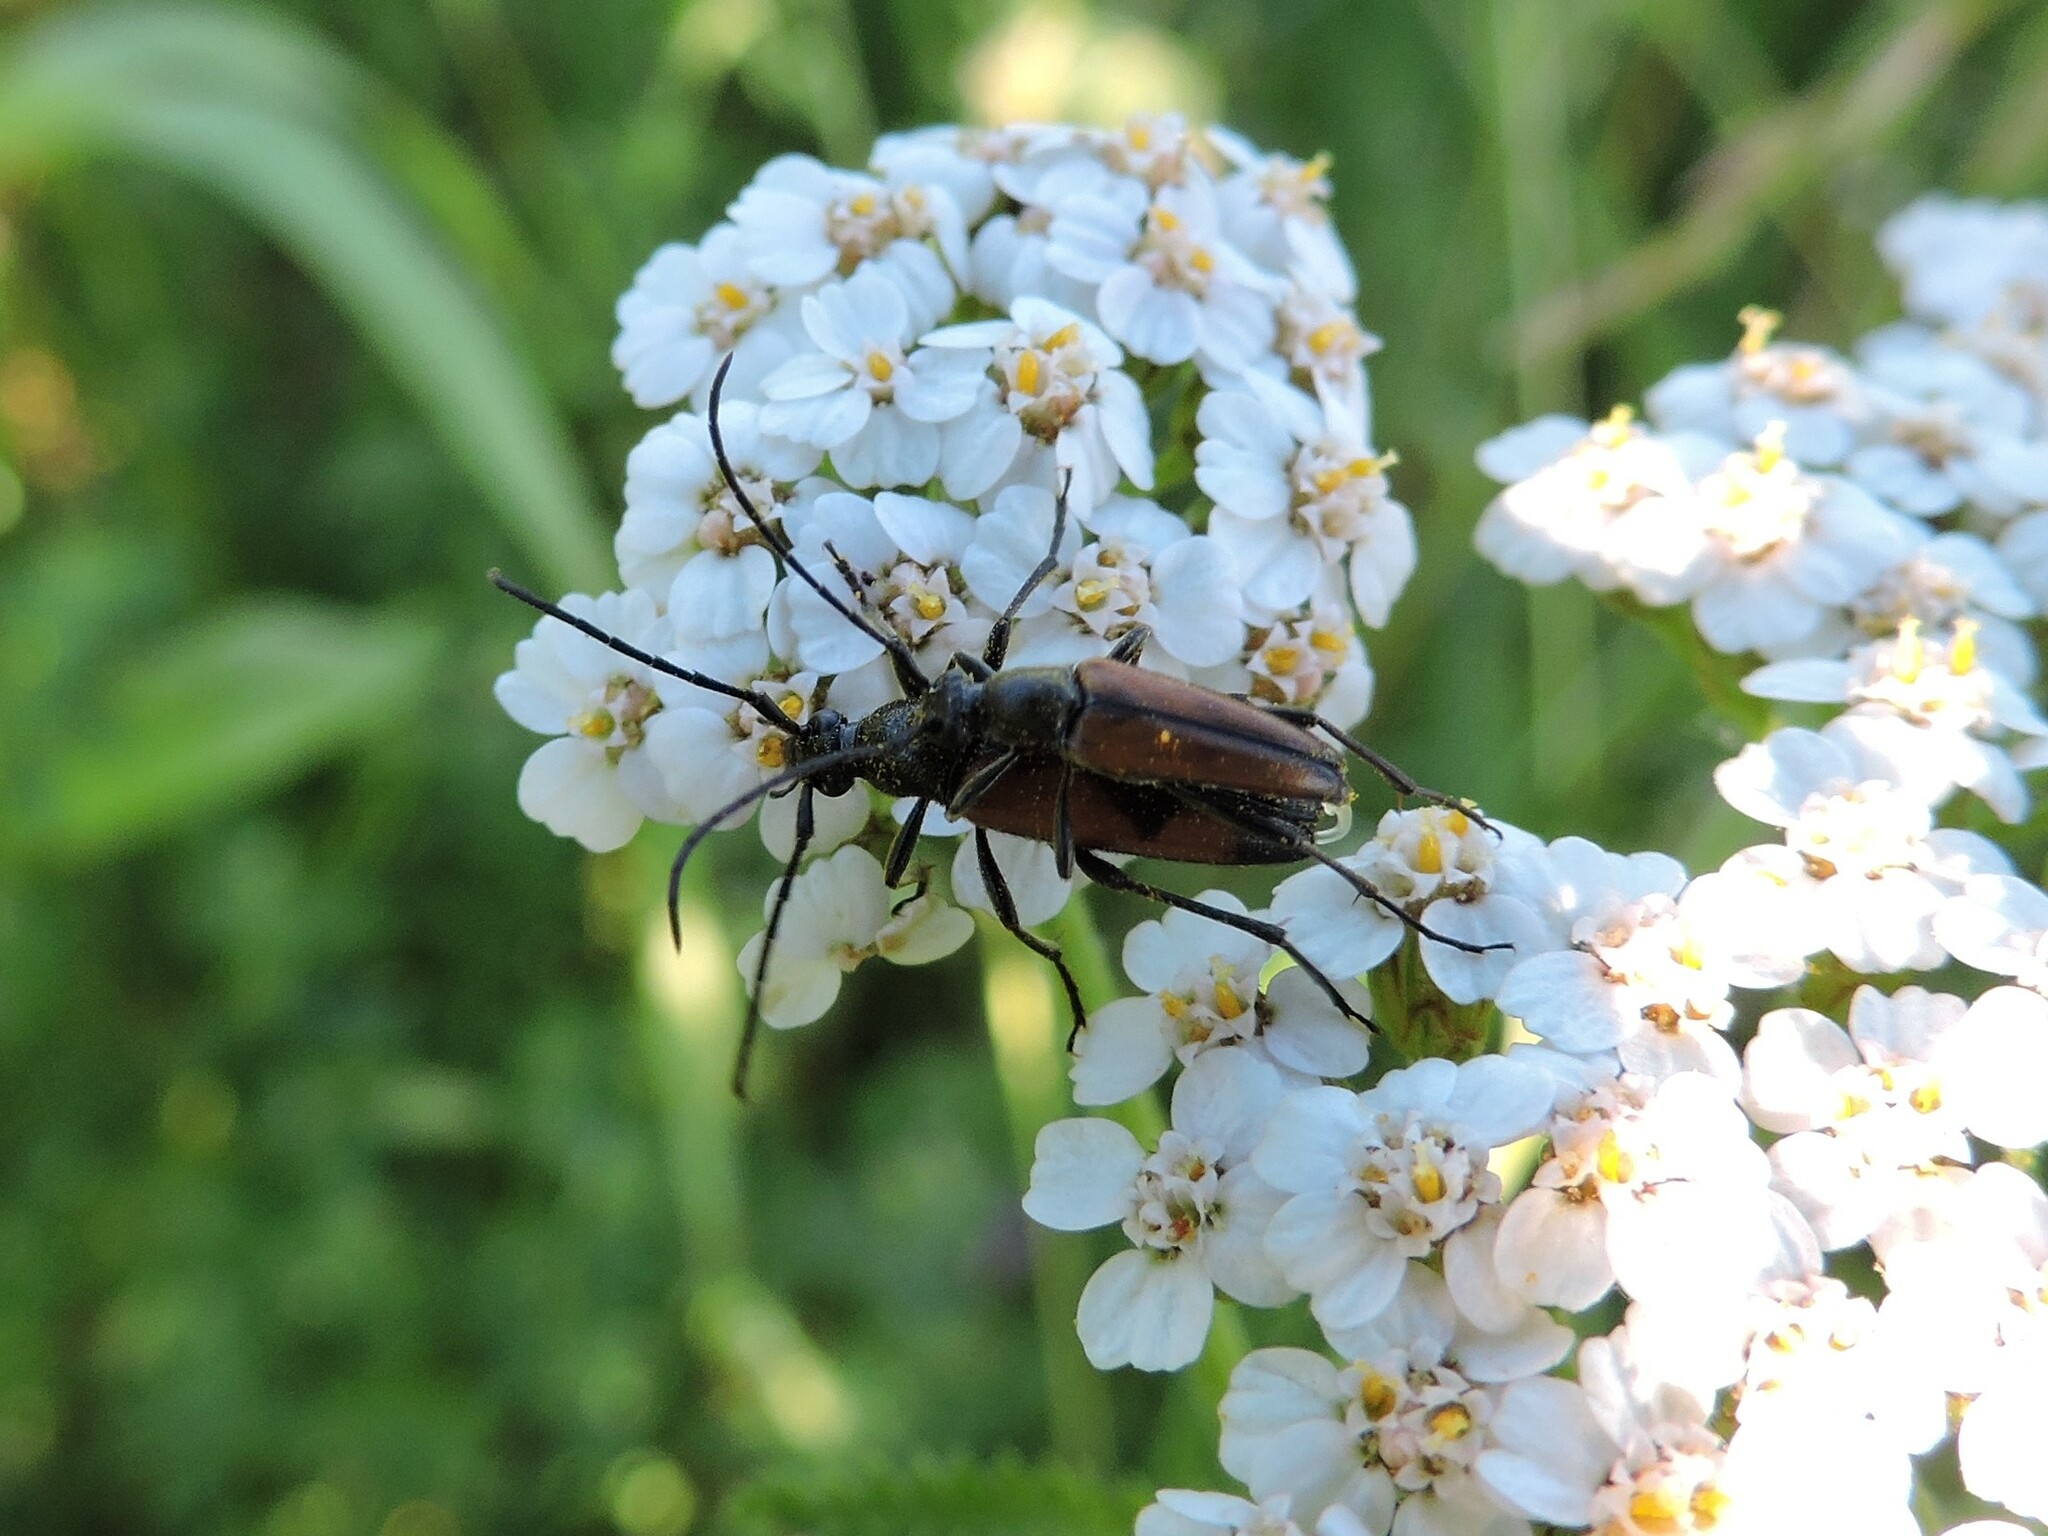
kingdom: Animalia
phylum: Arthropoda
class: Insecta
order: Coleoptera
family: Cerambycidae
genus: Stenurella
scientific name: Stenurella bifasciata
